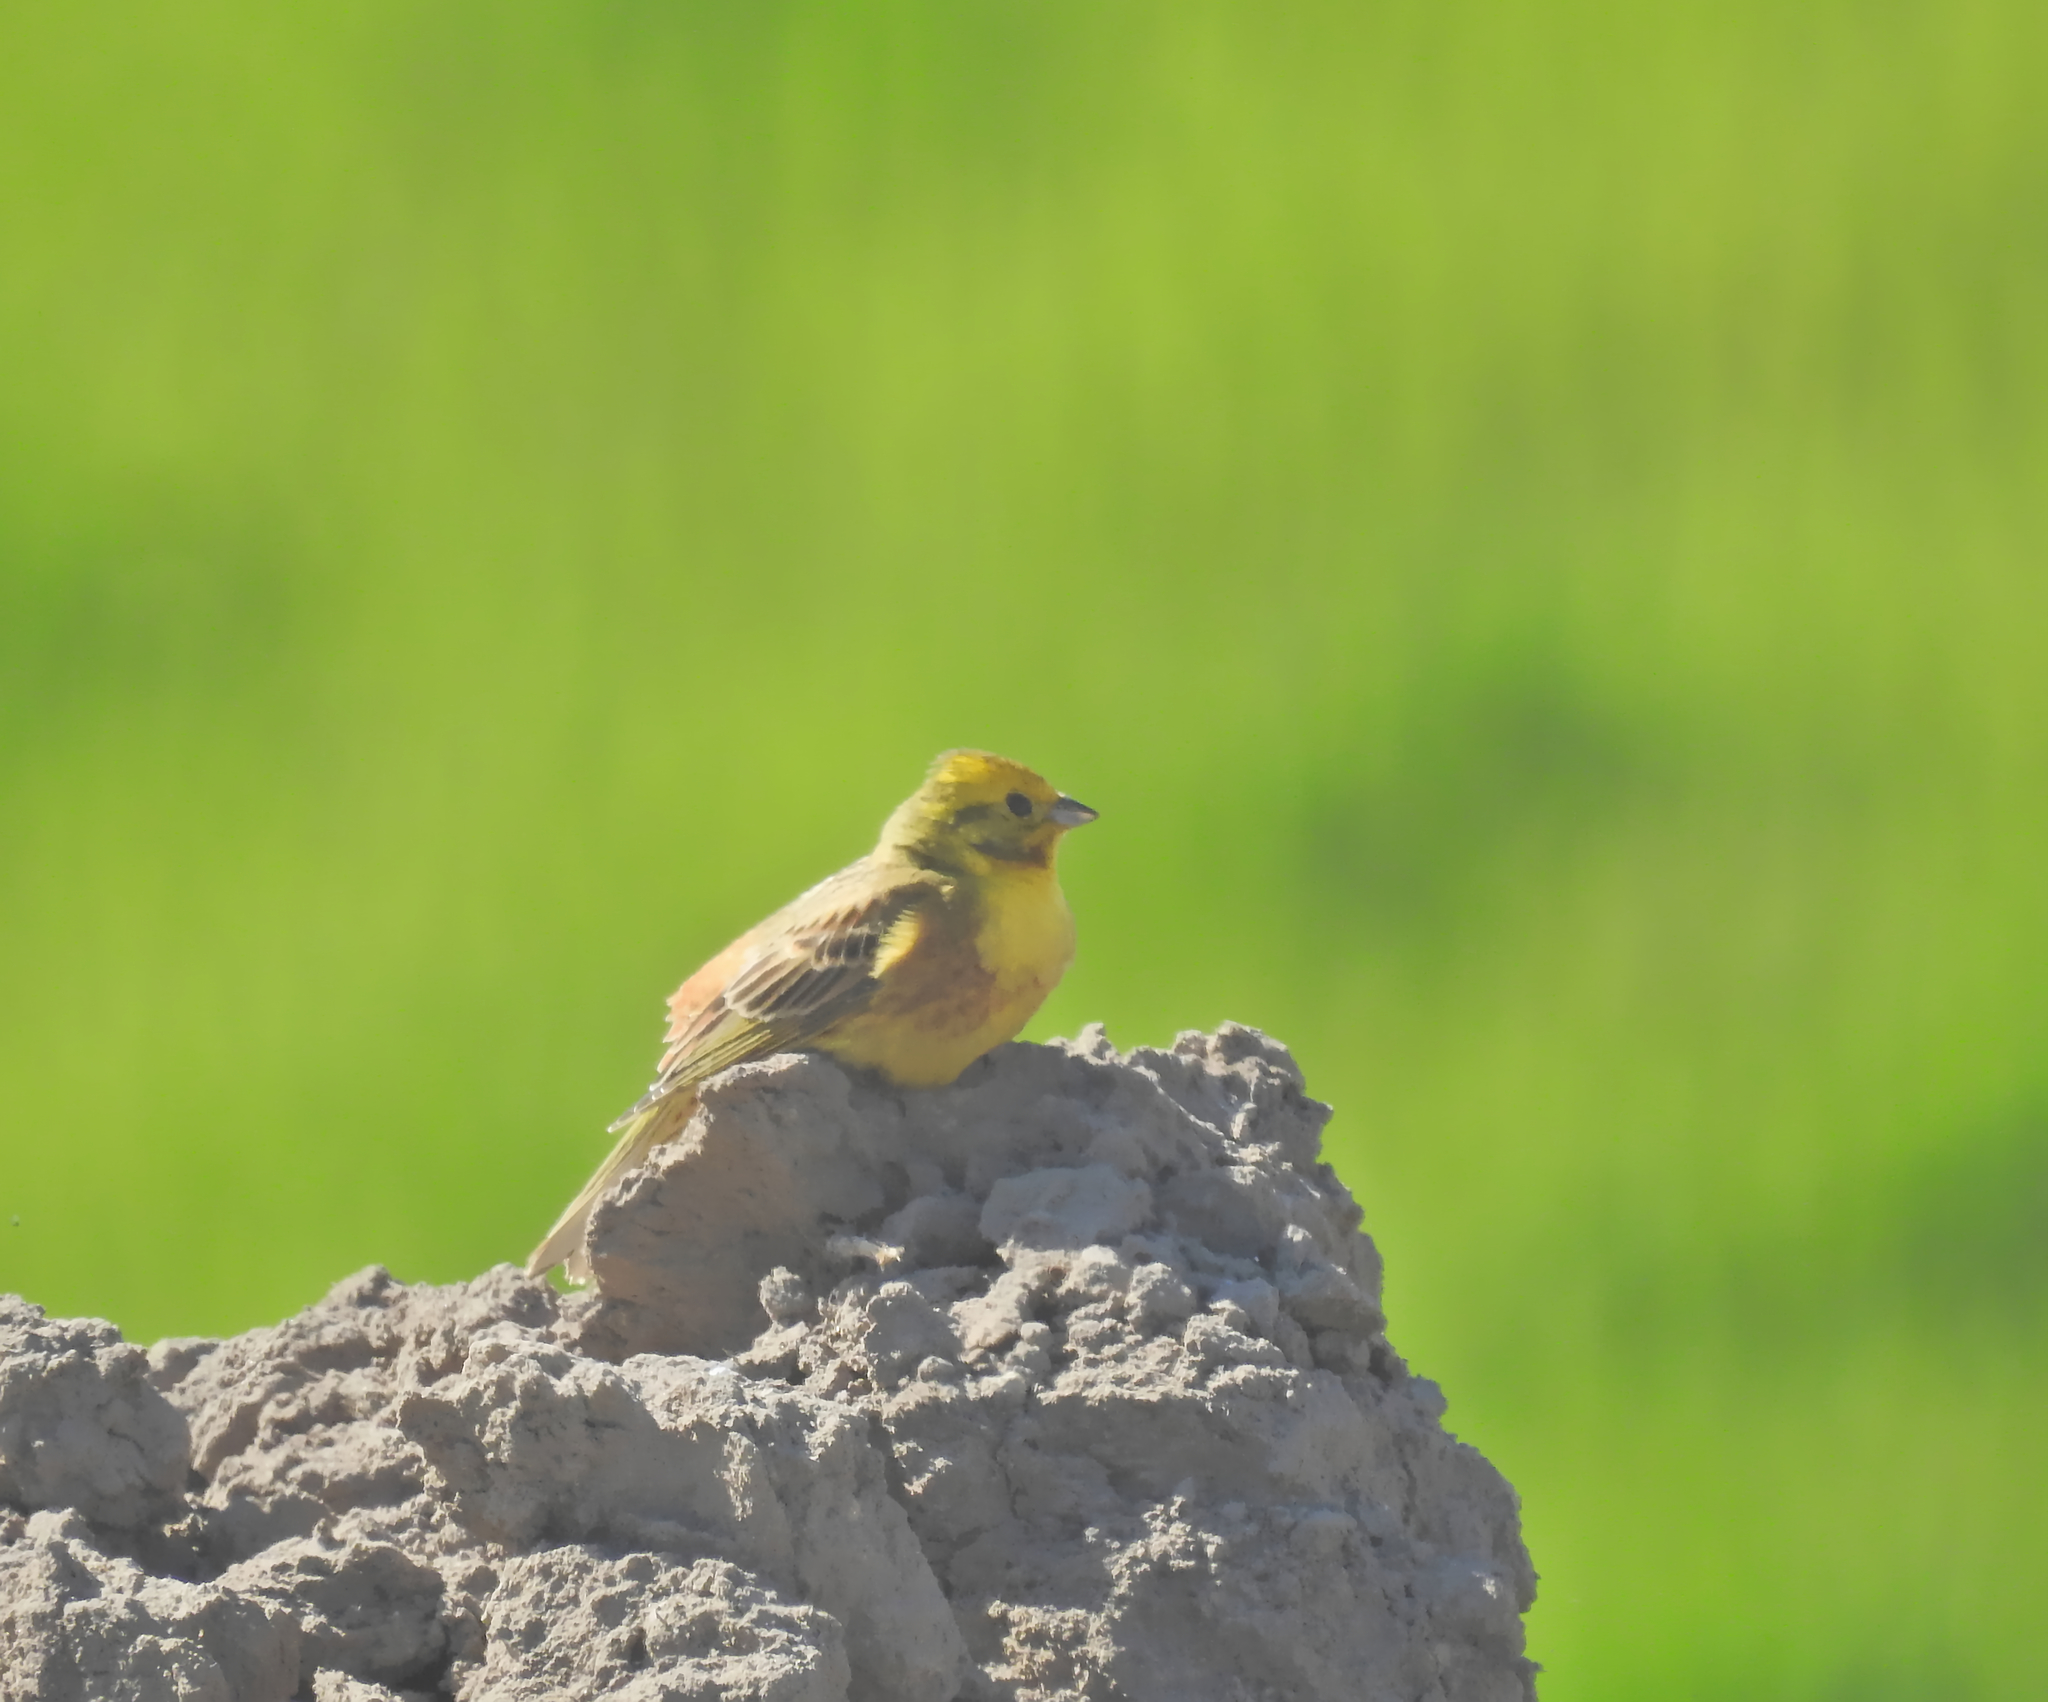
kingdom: Animalia
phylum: Chordata
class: Aves
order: Passeriformes
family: Emberizidae
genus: Emberiza
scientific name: Emberiza citrinella
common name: Yellowhammer
